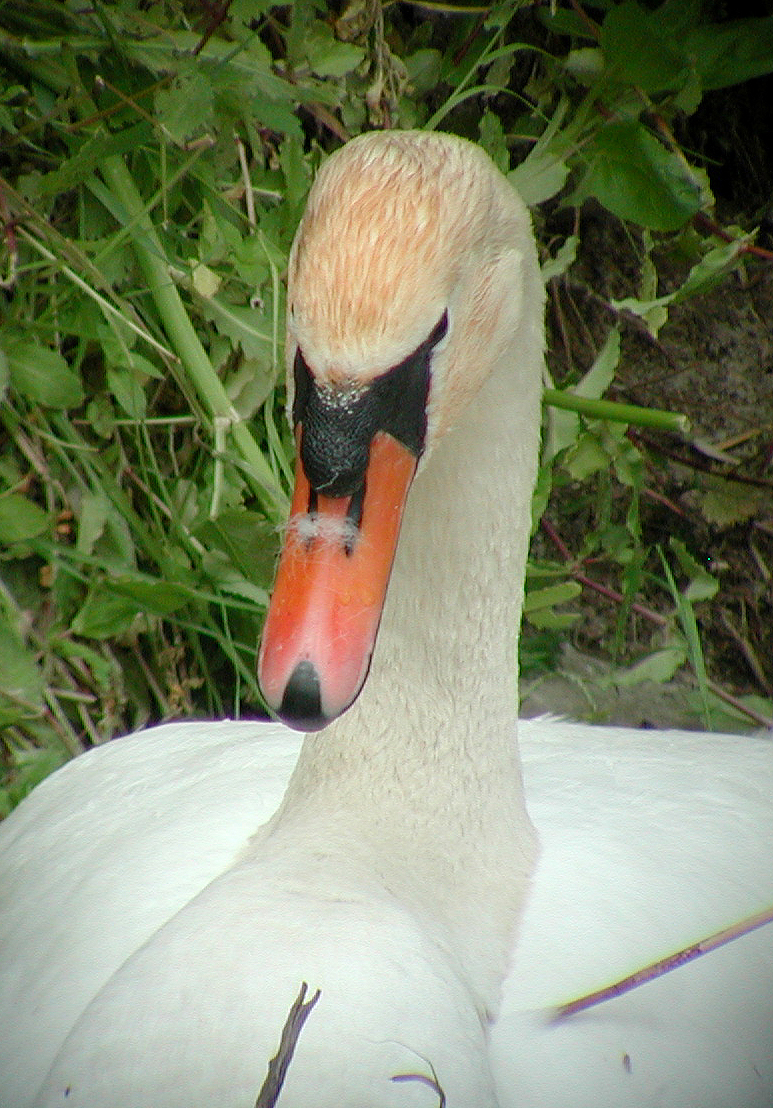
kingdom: Animalia
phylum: Chordata
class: Aves
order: Anseriformes
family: Anatidae
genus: Cygnus
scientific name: Cygnus olor
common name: Mute swan
